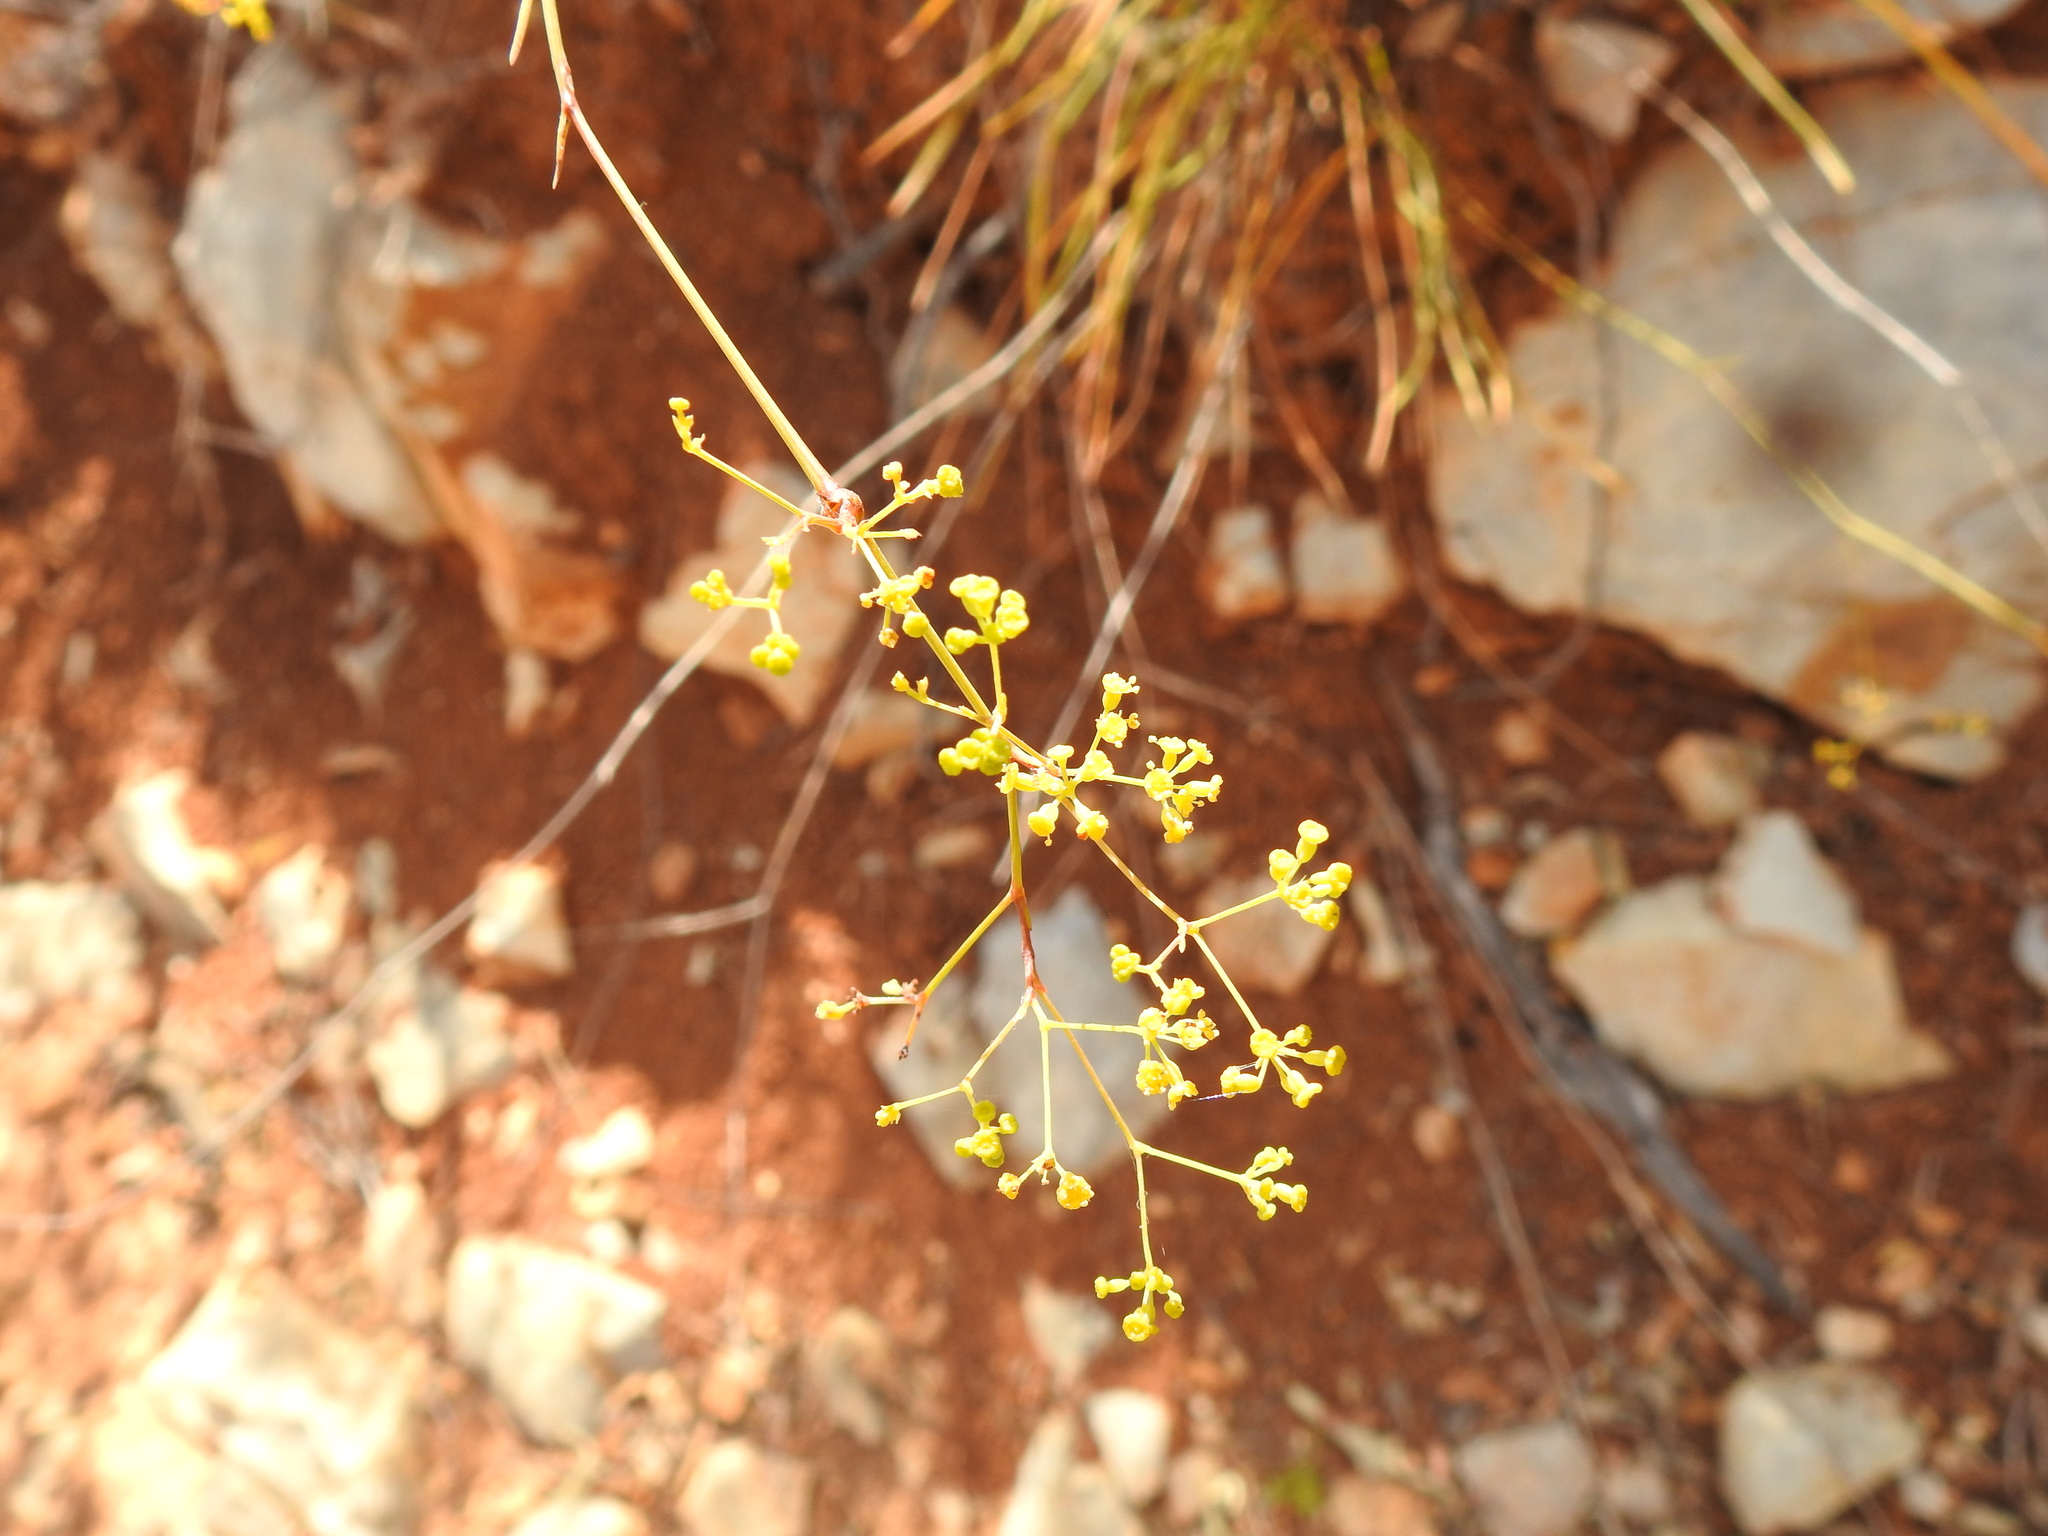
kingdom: Plantae
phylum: Tracheophyta
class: Magnoliopsida
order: Apiales
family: Apiaceae
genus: Bupleurum
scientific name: Bupleurum rigidum
